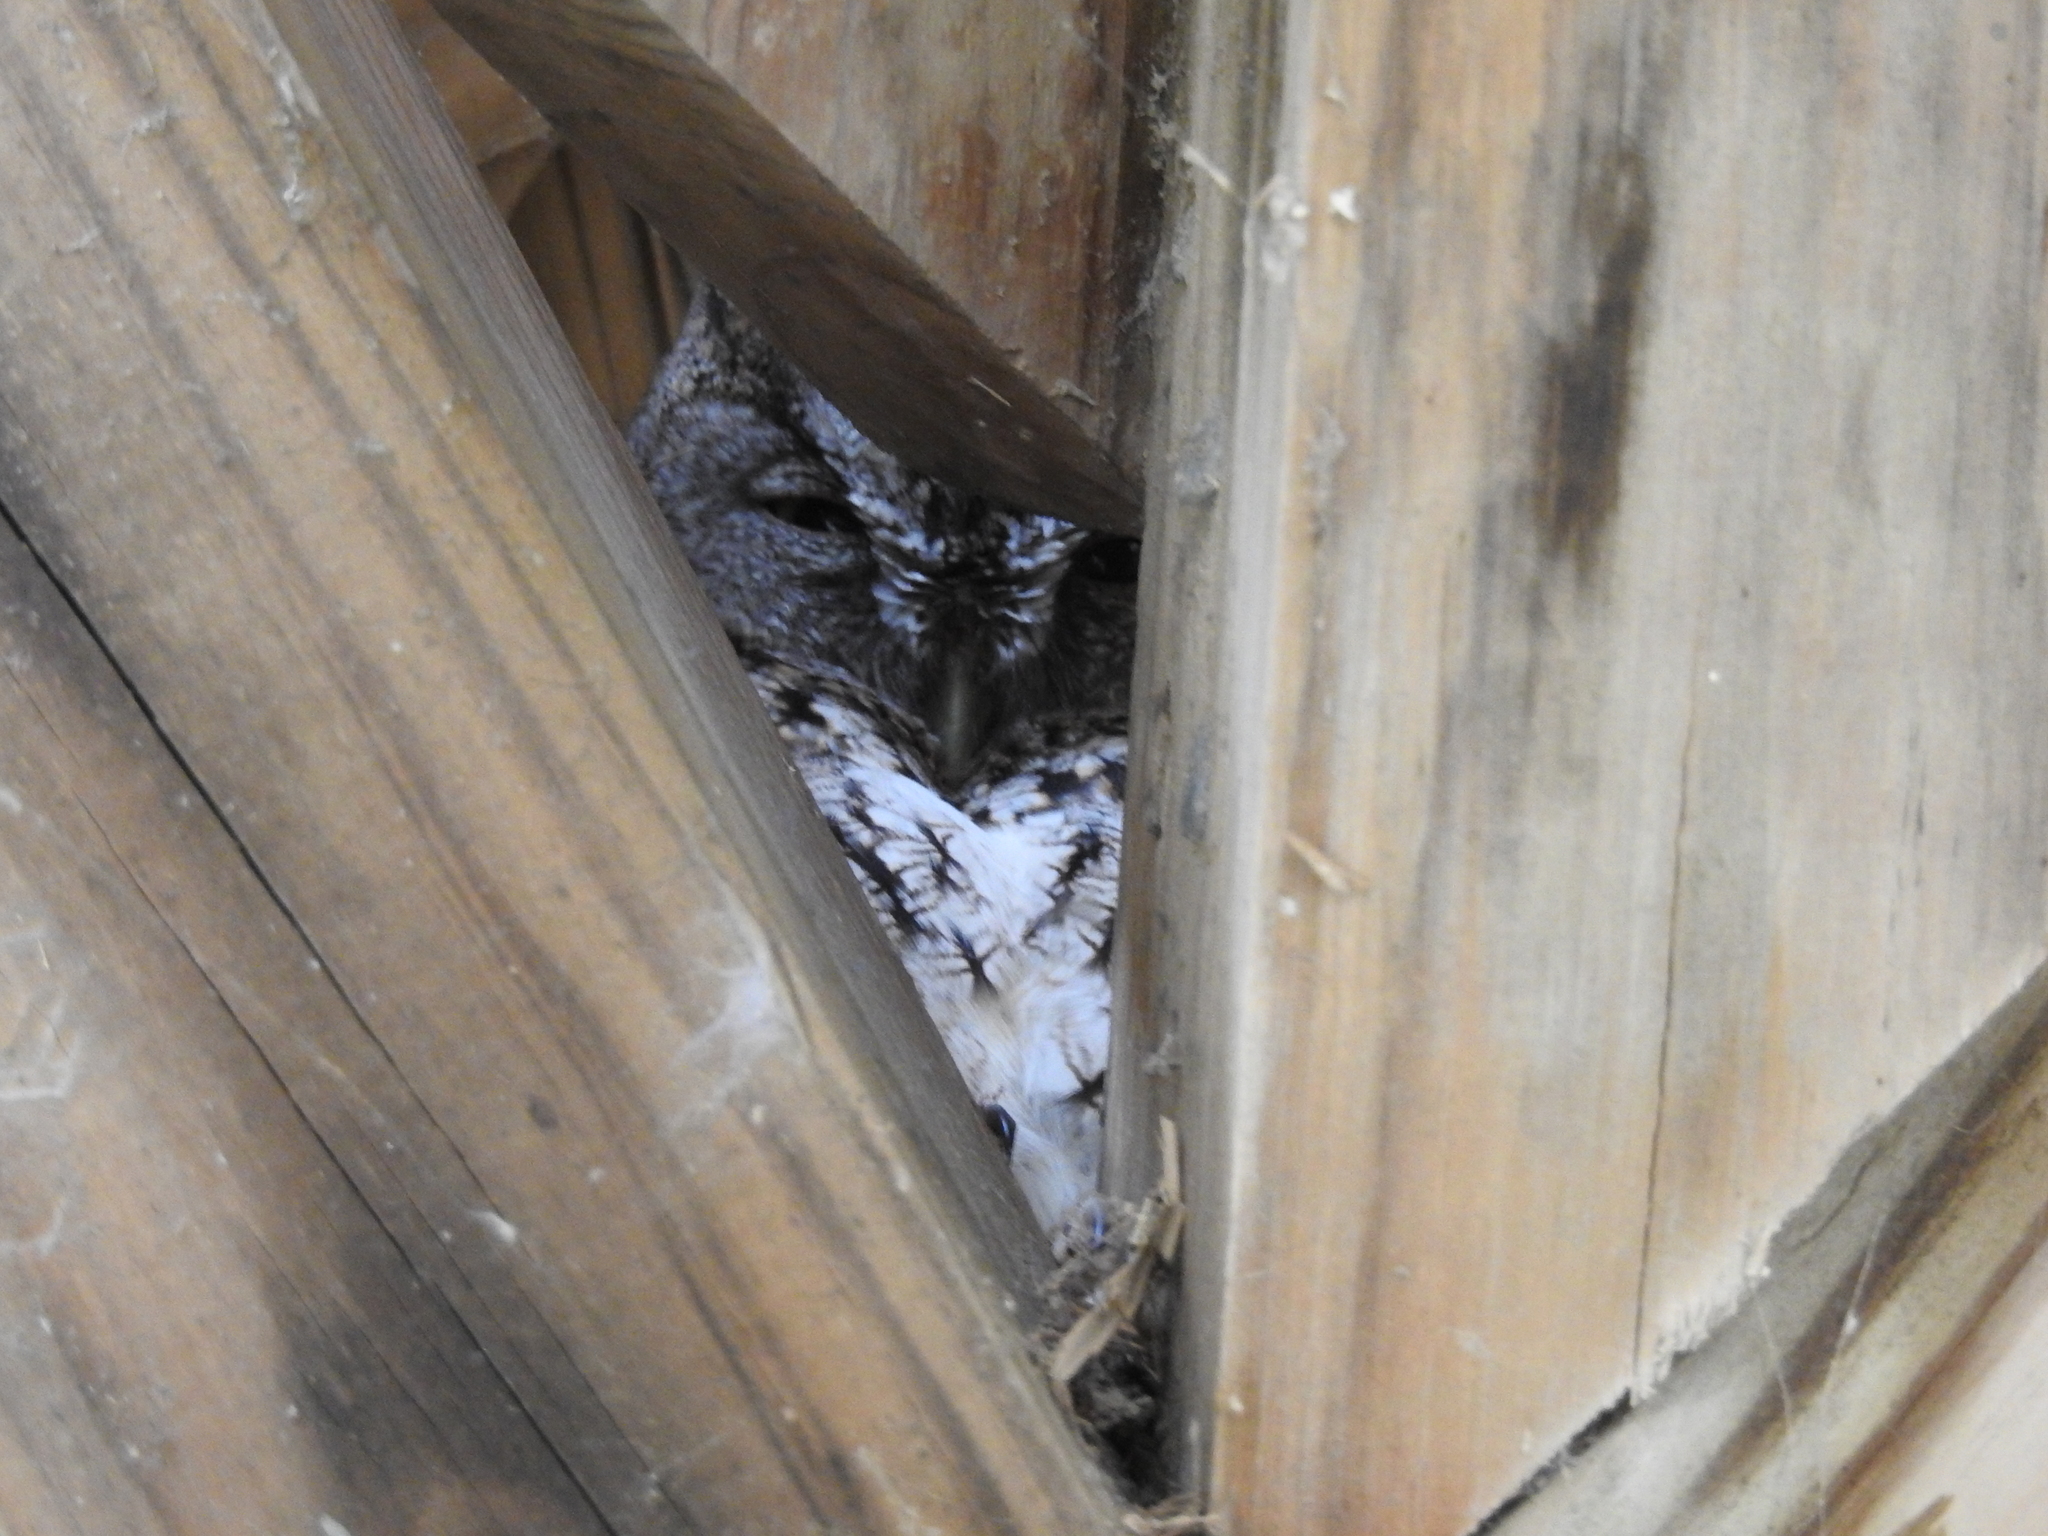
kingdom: Animalia
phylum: Chordata
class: Aves
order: Strigiformes
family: Strigidae
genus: Megascops
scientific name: Megascops asio
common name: Eastern screech-owl
